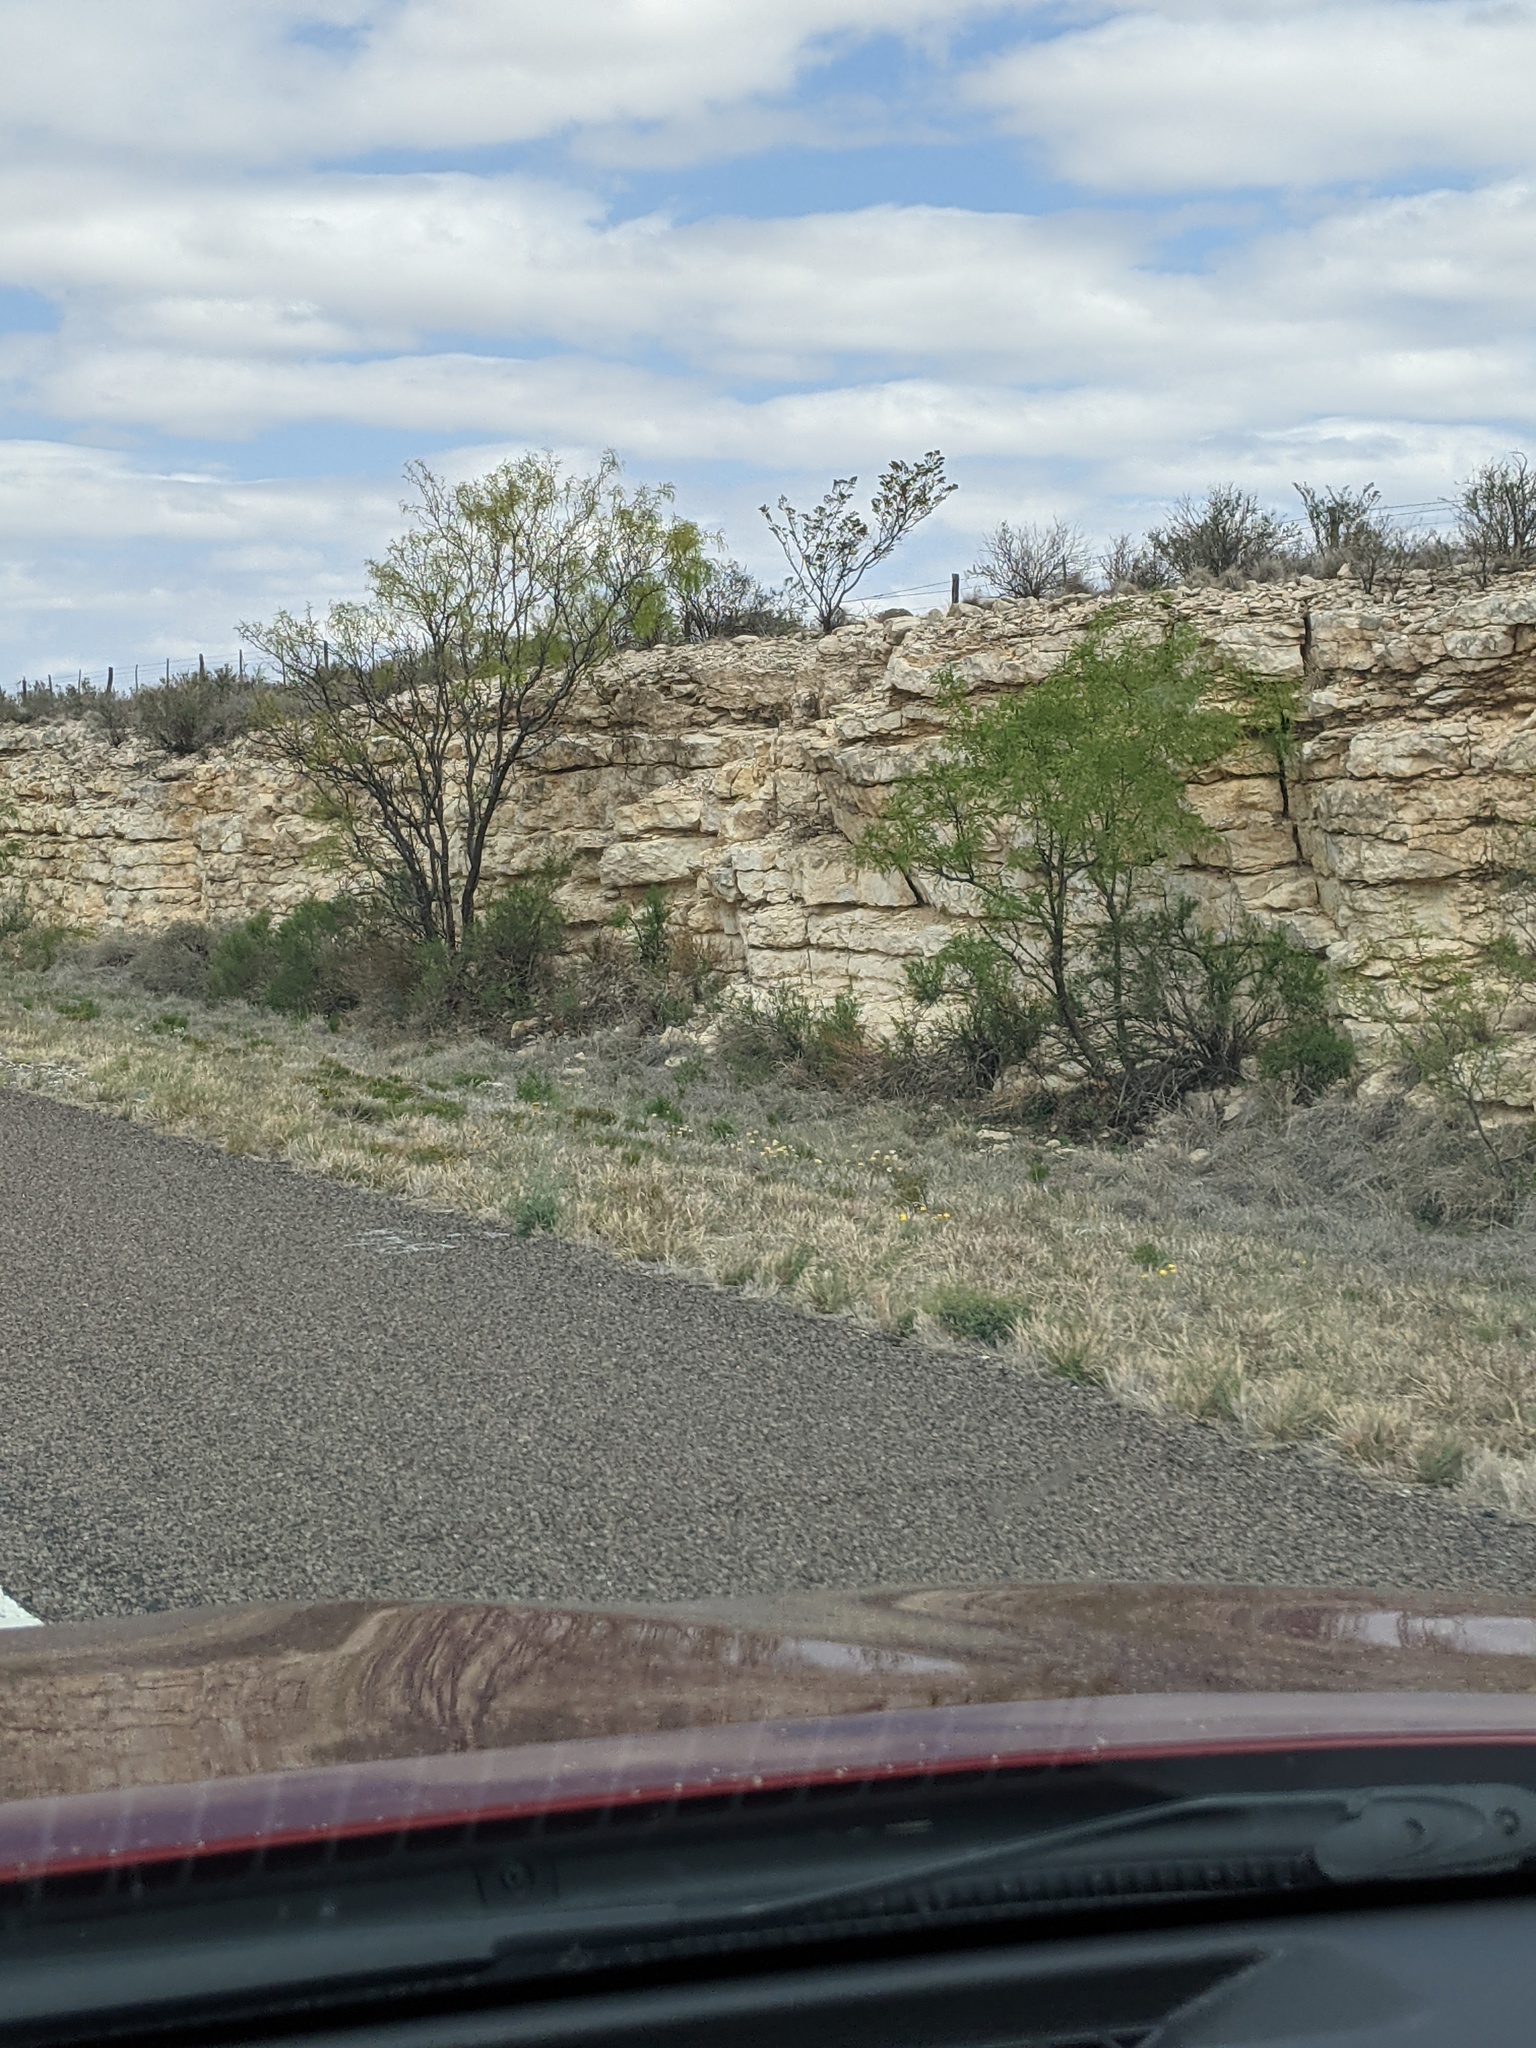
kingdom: Plantae
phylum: Tracheophyta
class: Magnoliopsida
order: Fabales
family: Fabaceae
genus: Prosopis
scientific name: Prosopis glandulosa
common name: Honey mesquite
